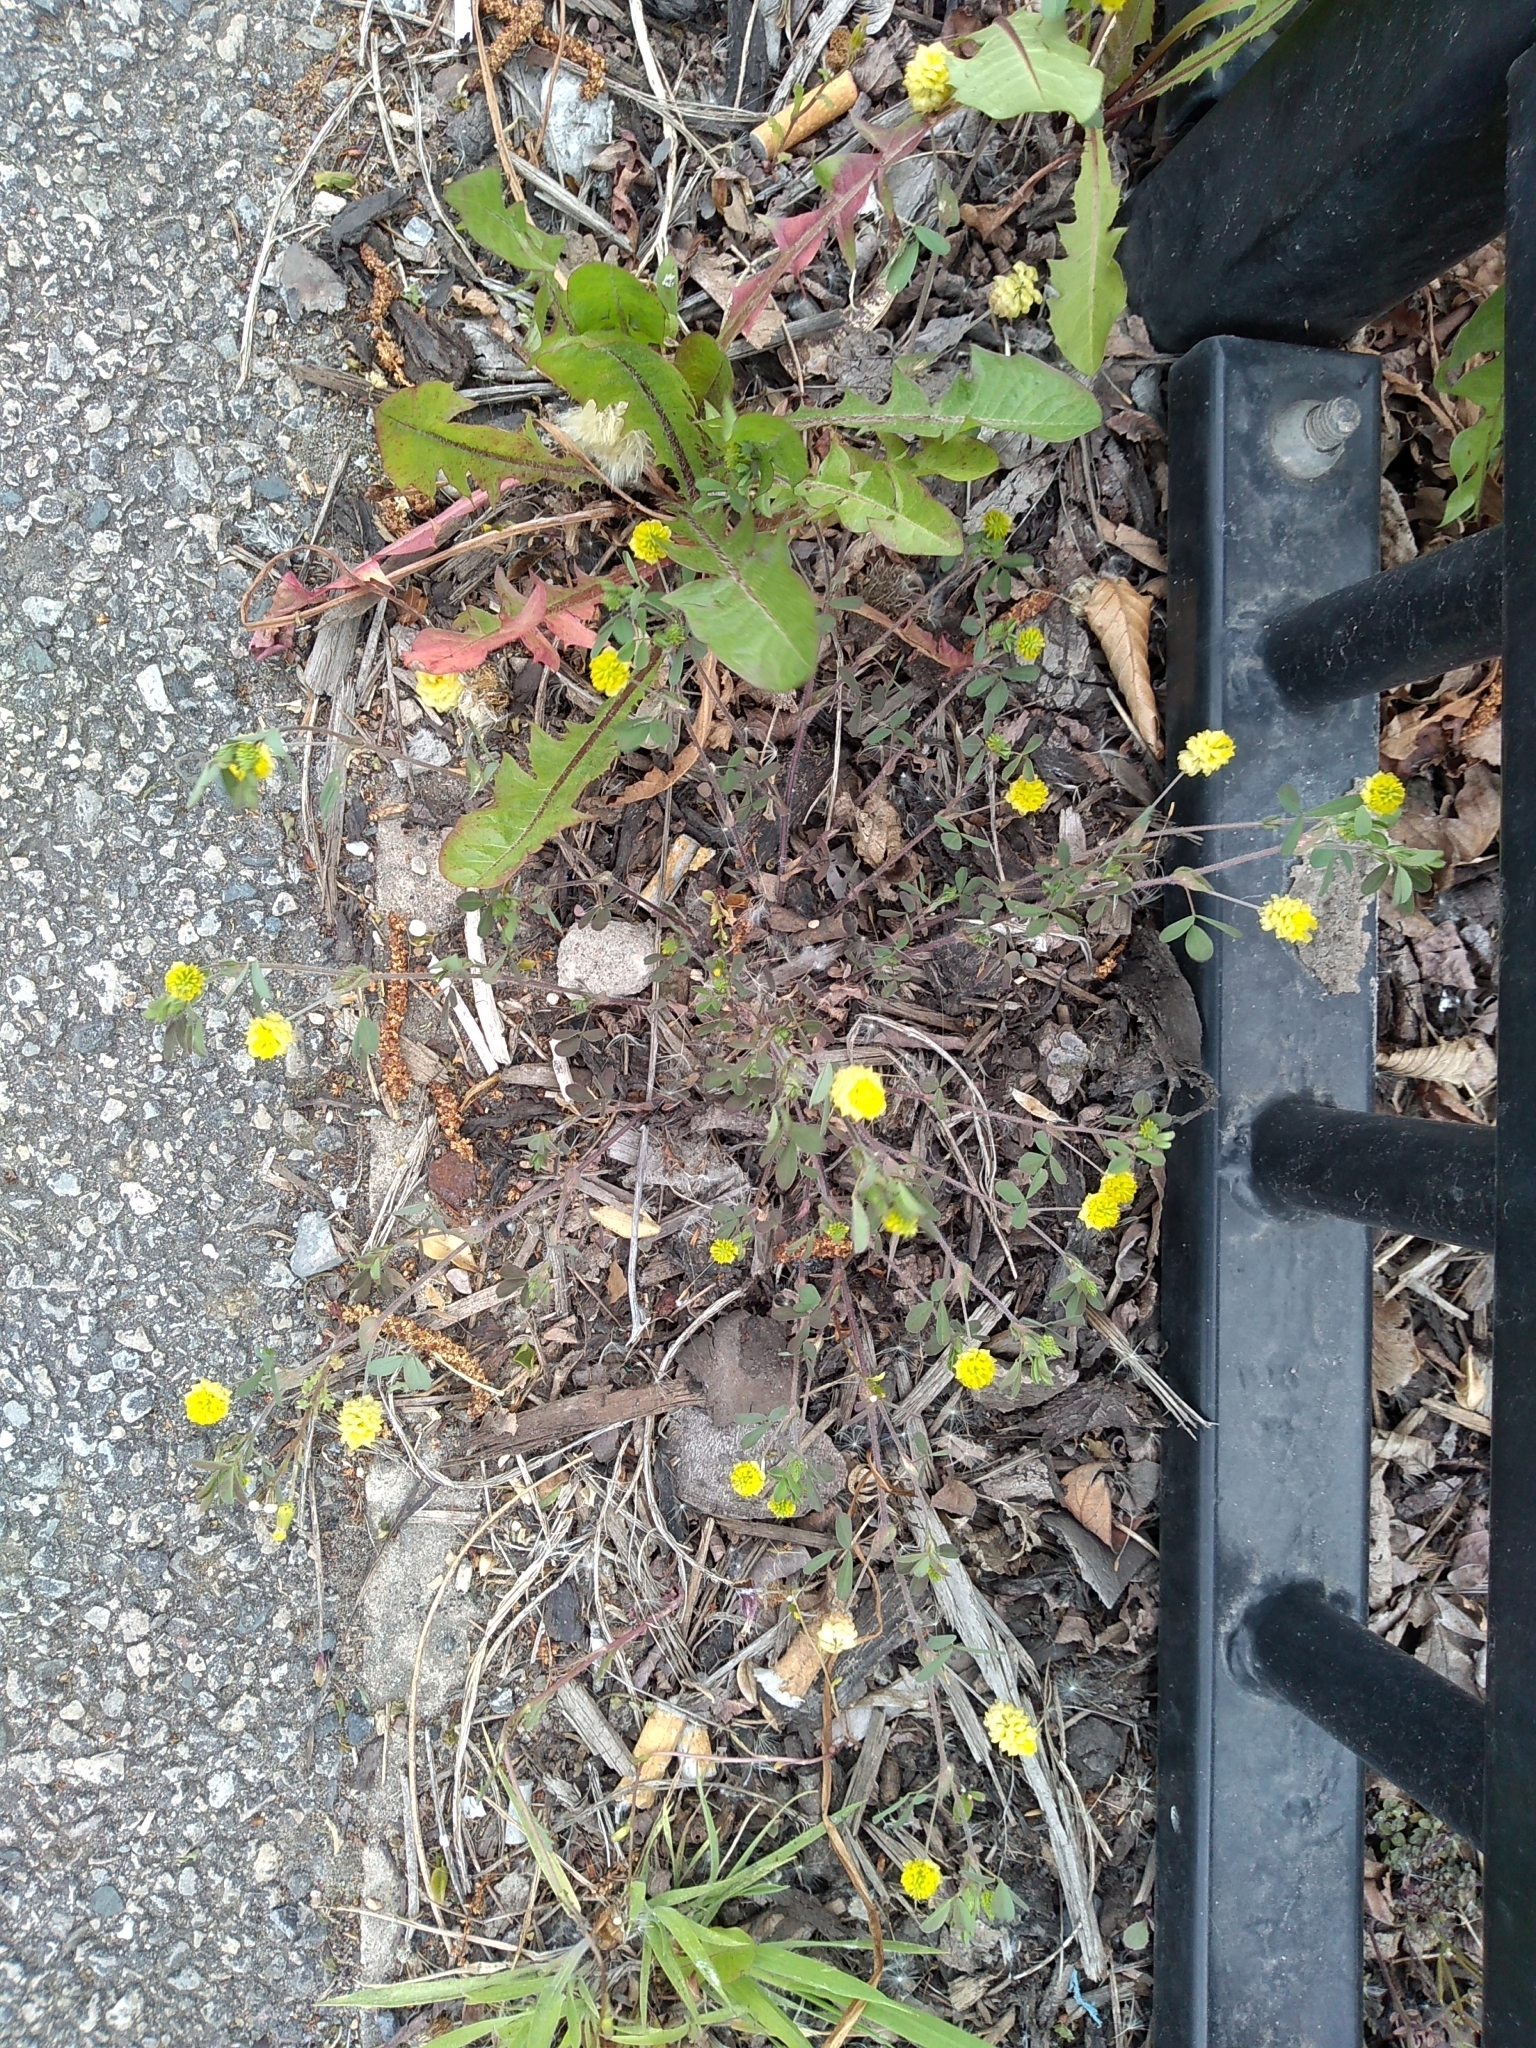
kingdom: Plantae
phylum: Tracheophyta
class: Magnoliopsida
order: Fabales
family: Fabaceae
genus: Trifolium
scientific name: Trifolium campestre
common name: Field clover
